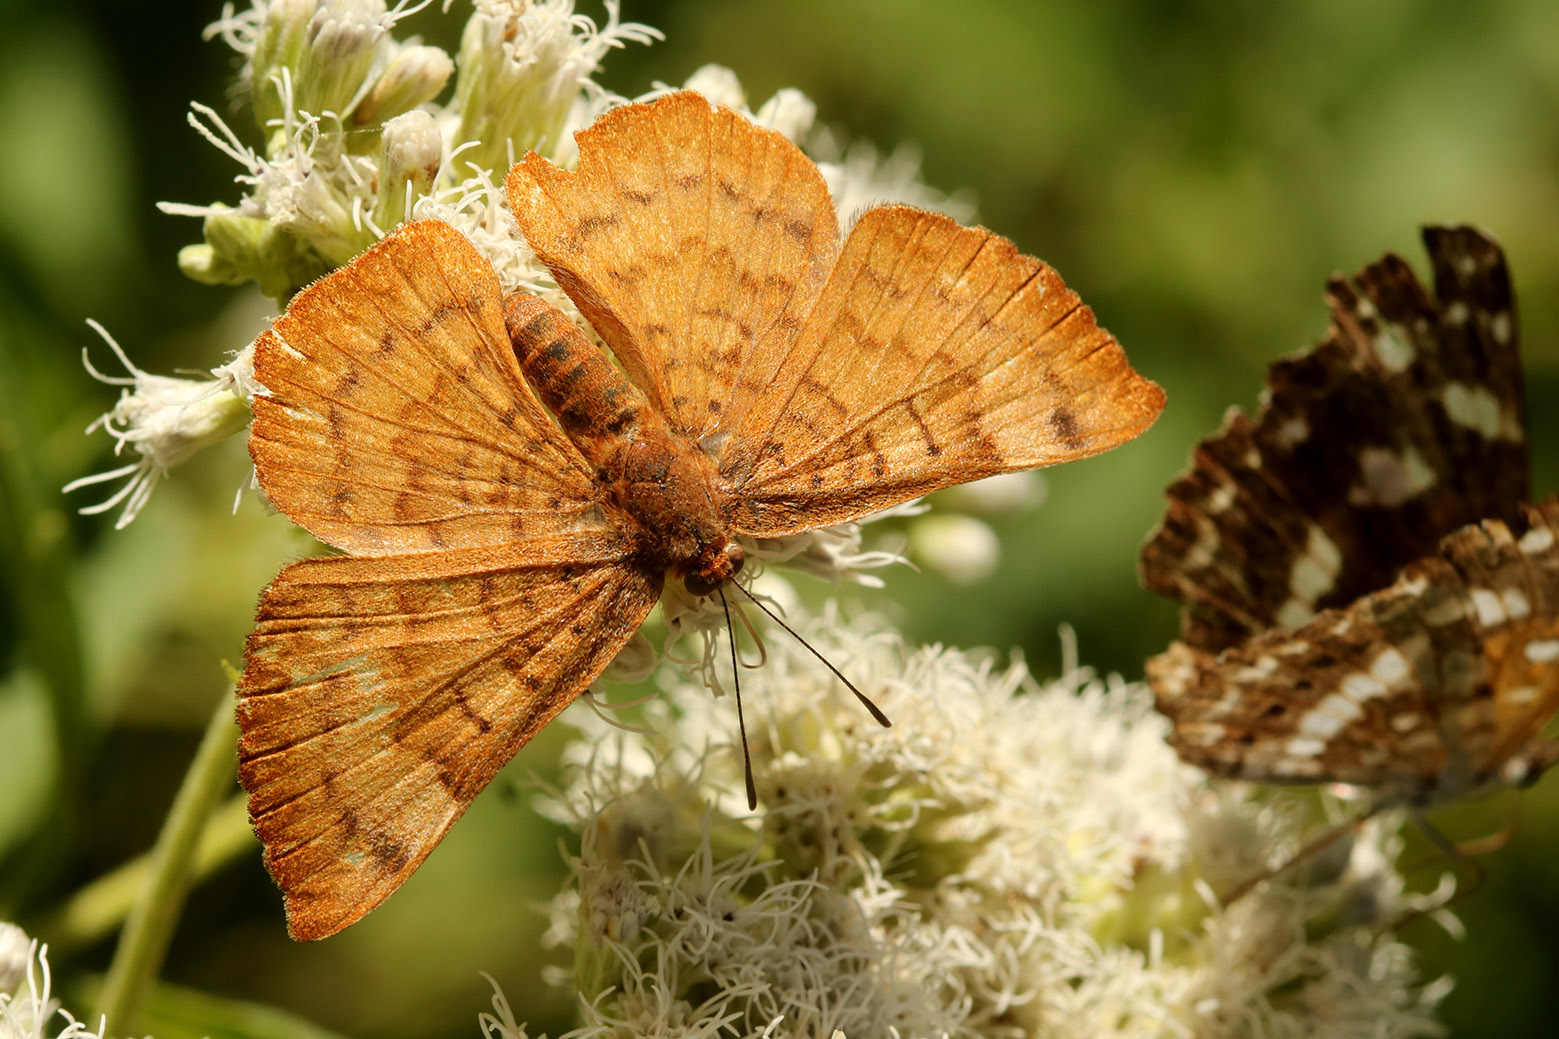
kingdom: Animalia
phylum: Arthropoda
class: Insecta
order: Lepidoptera
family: Lycaenidae
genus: Emesis
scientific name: Emesis russula
